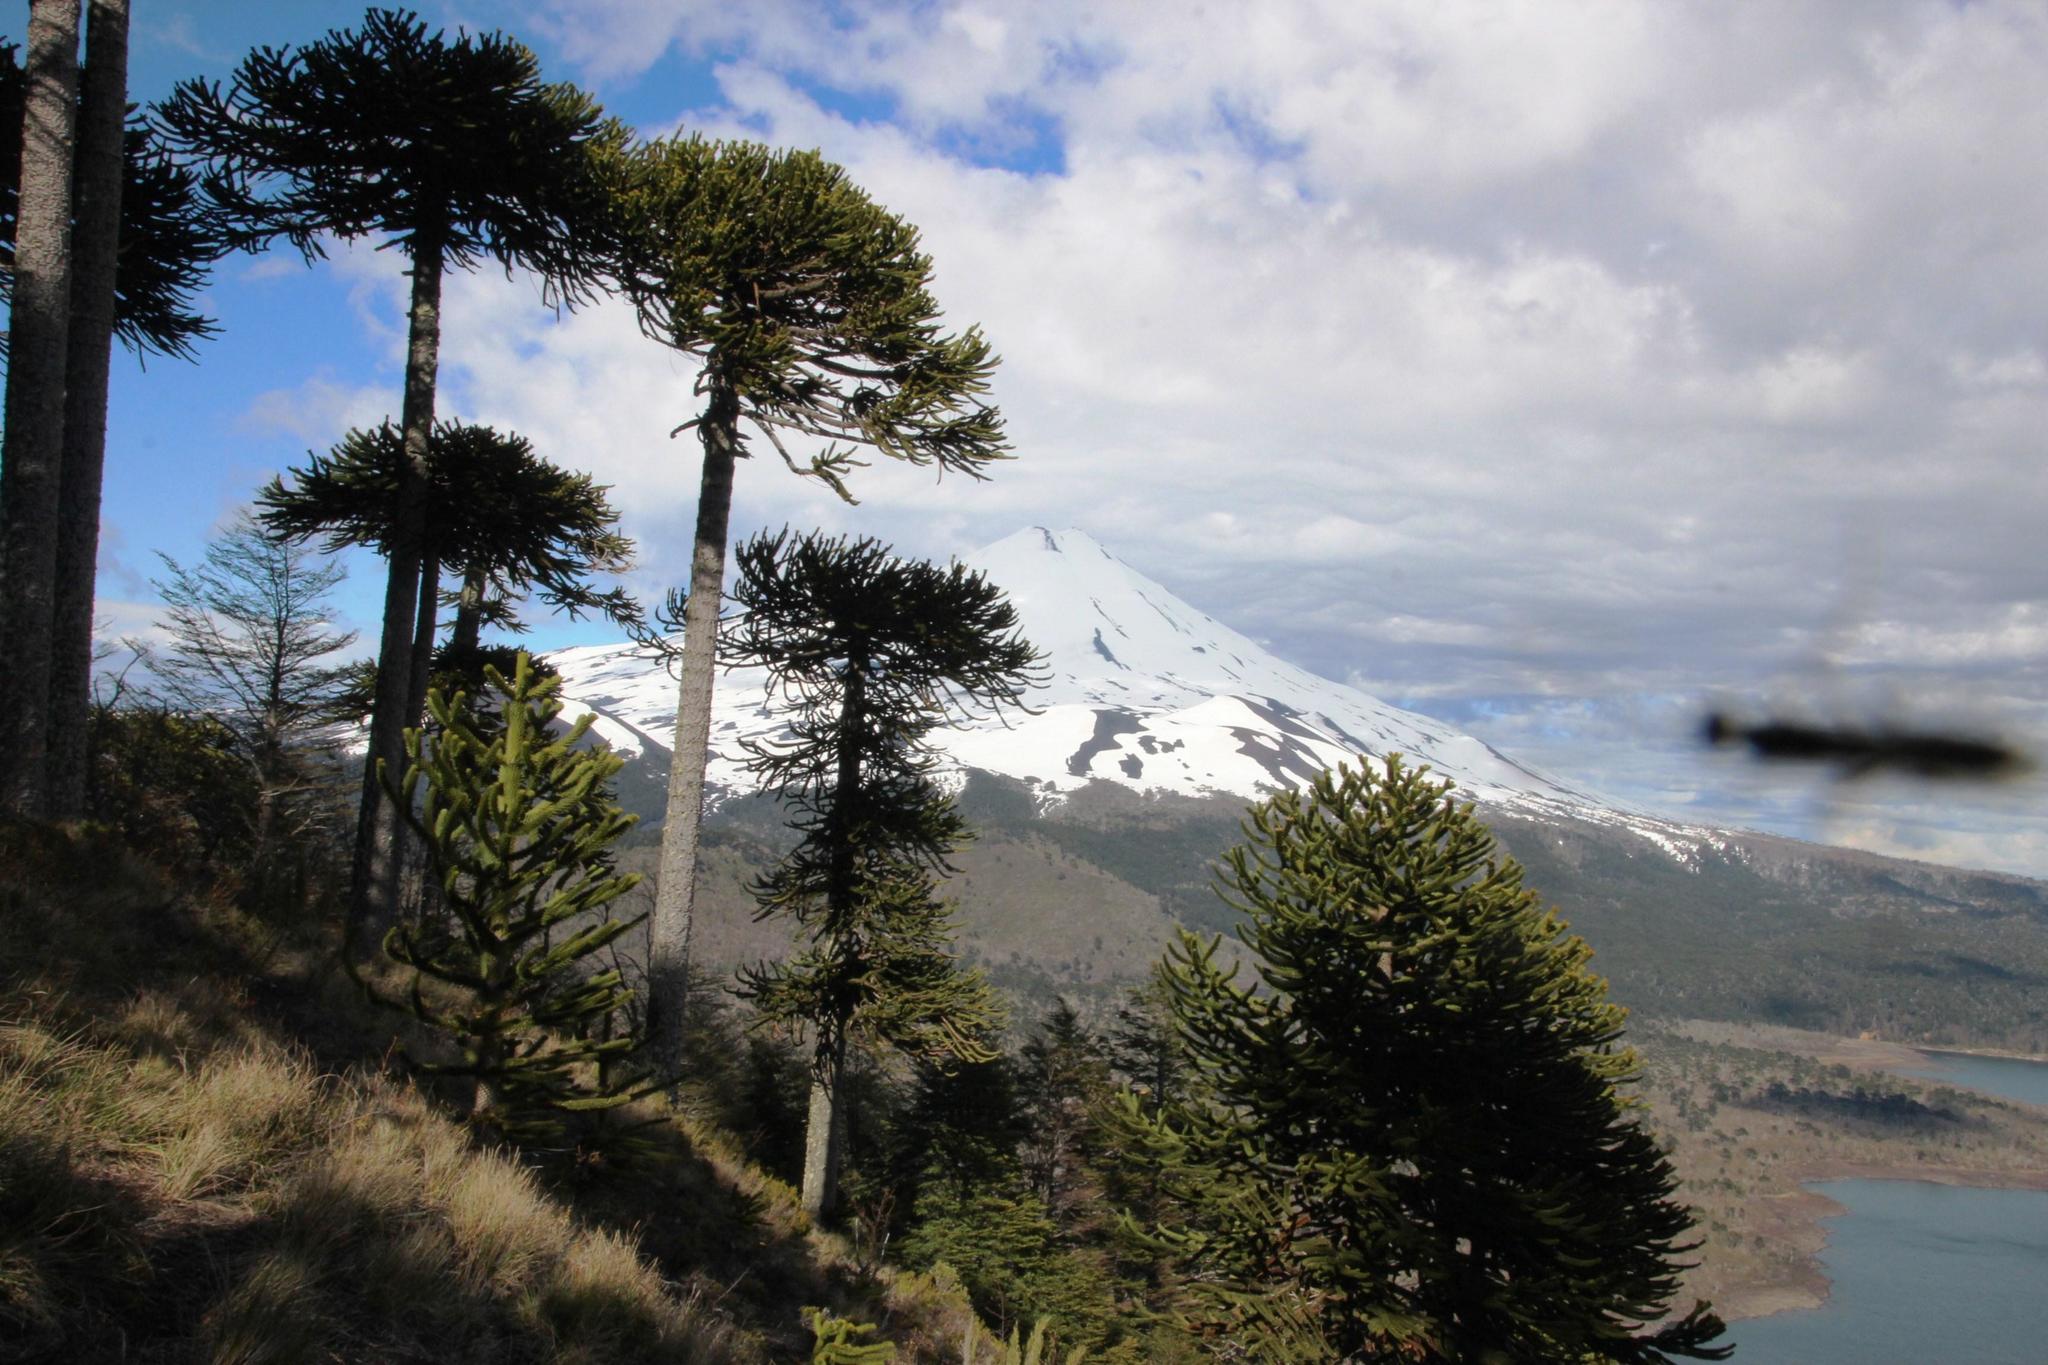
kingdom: Plantae
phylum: Tracheophyta
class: Pinopsida
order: Pinales
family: Araucariaceae
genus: Araucaria
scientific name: Araucaria araucana
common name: Monkey-puzzle
